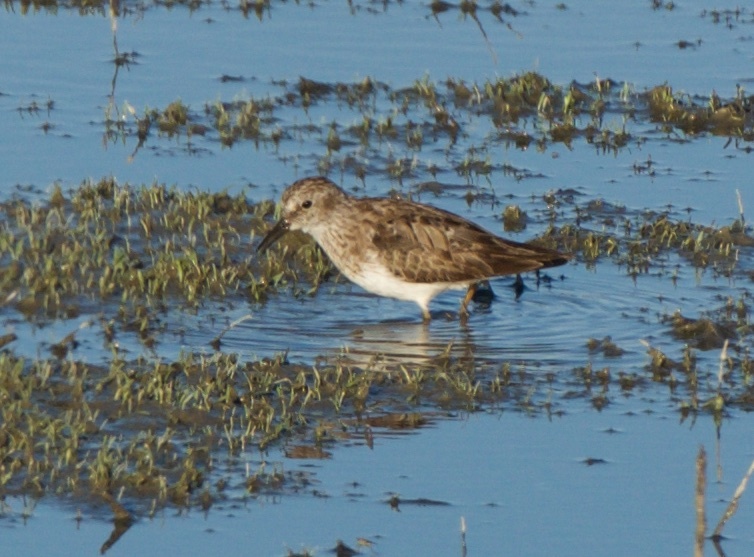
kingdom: Animalia
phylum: Chordata
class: Aves
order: Charadriiformes
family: Scolopacidae
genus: Calidris
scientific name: Calidris minutilla
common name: Least sandpiper
